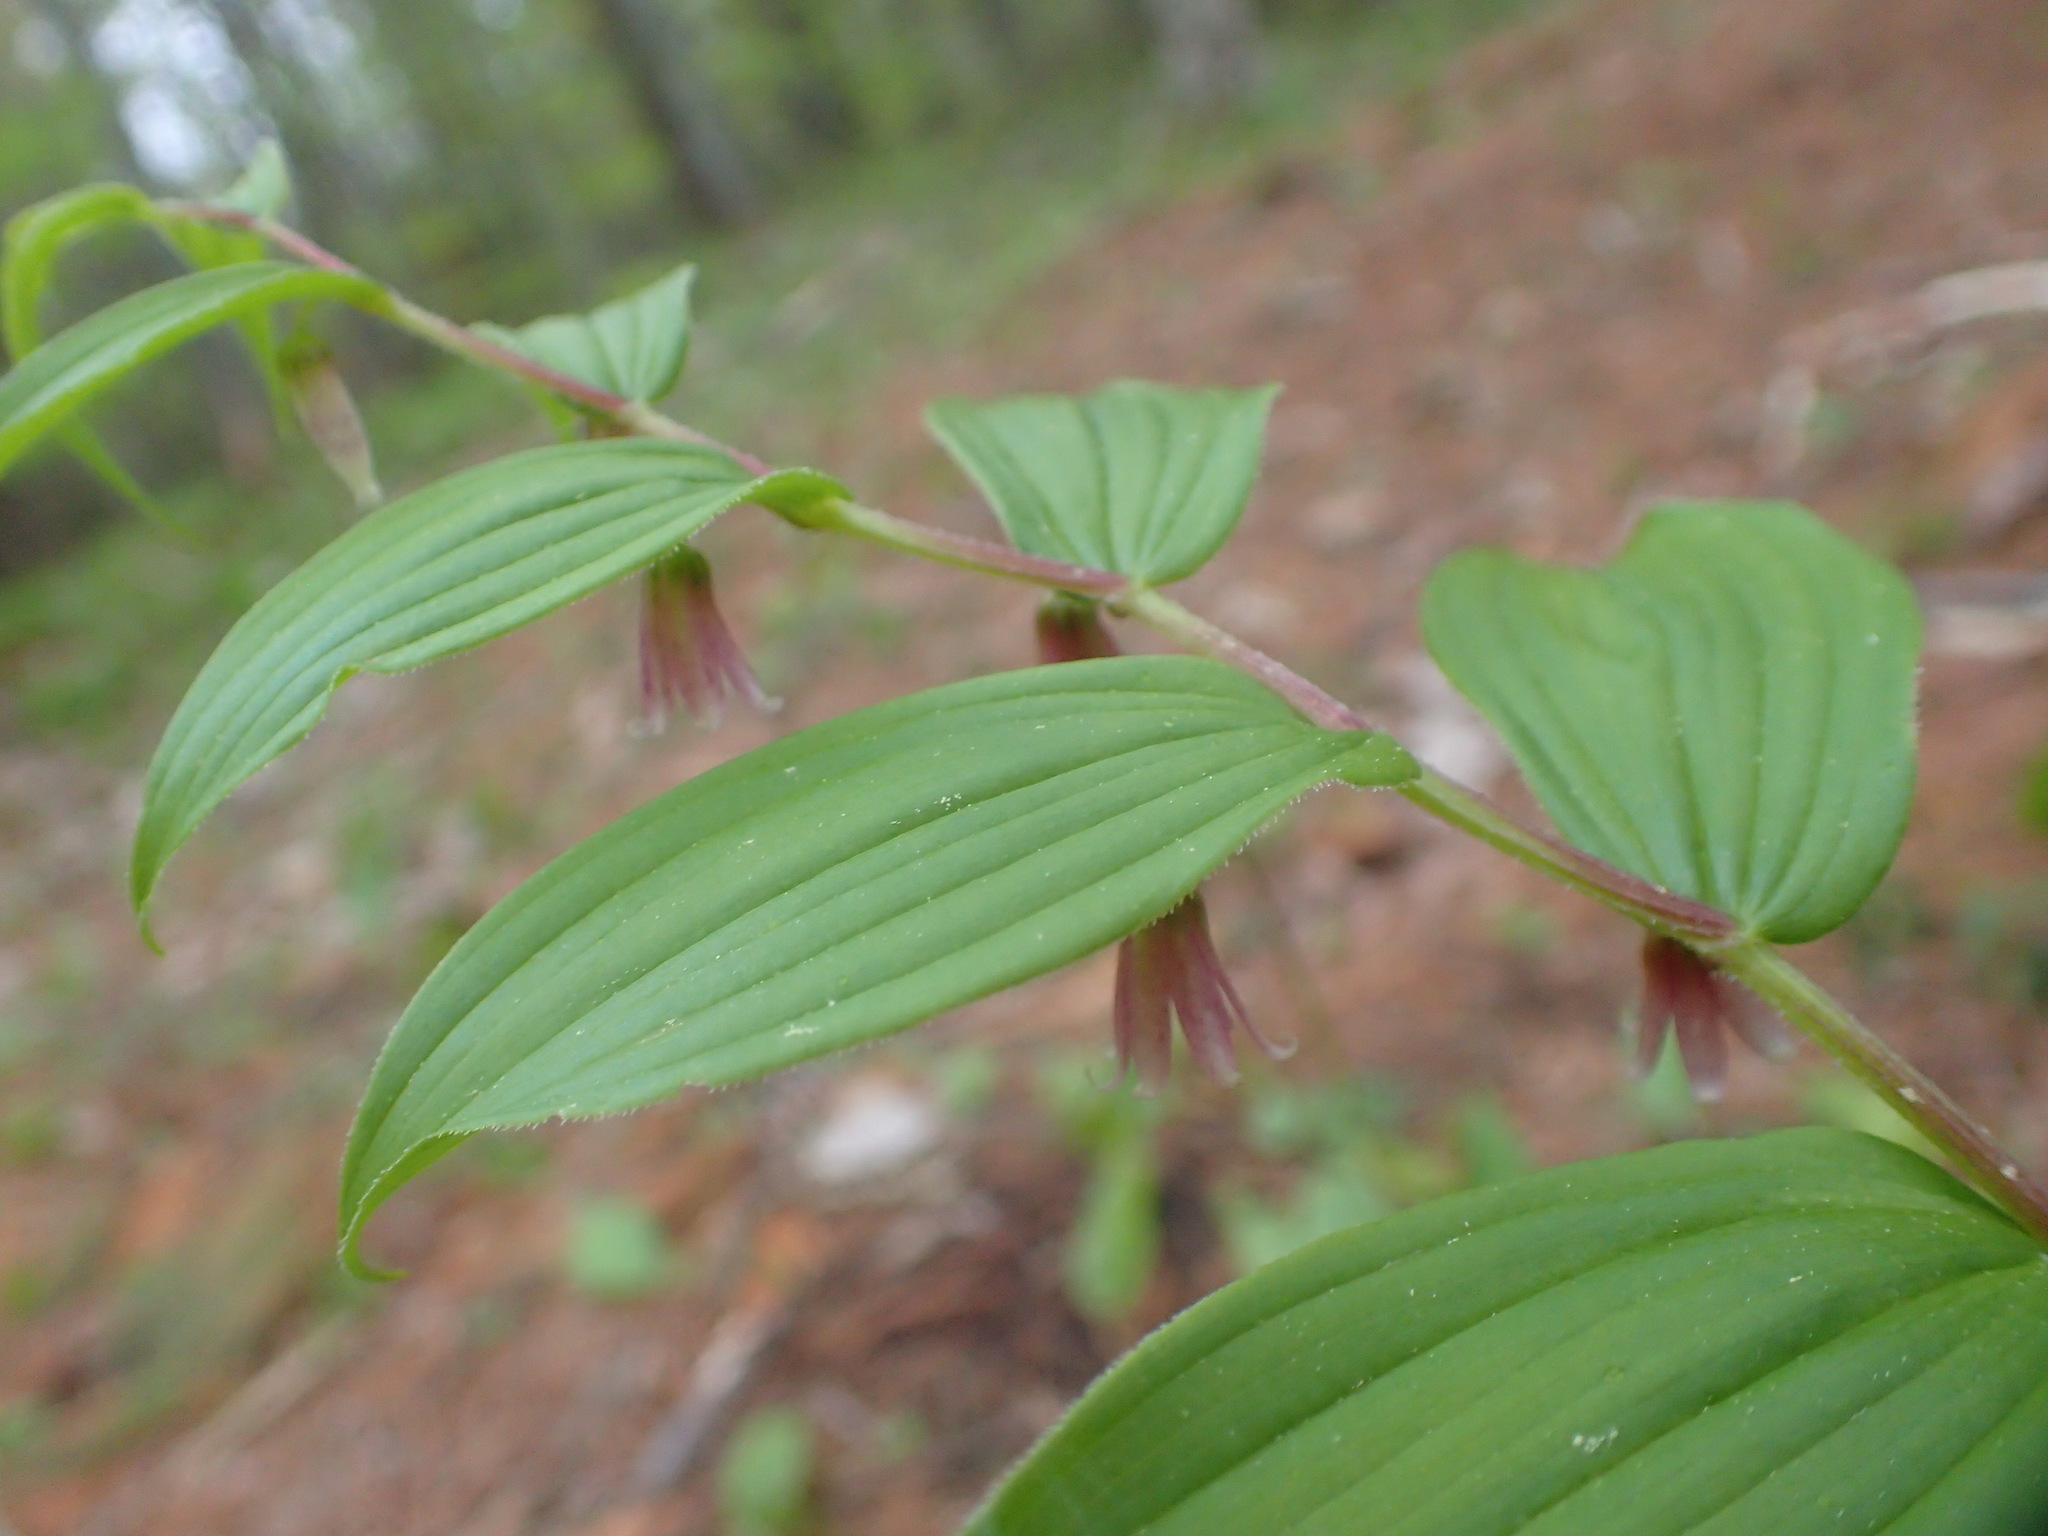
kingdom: Plantae
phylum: Tracheophyta
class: Liliopsida
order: Liliales
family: Liliaceae
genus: Streptopus
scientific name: Streptopus lanceolatus
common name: Rose mandarin
